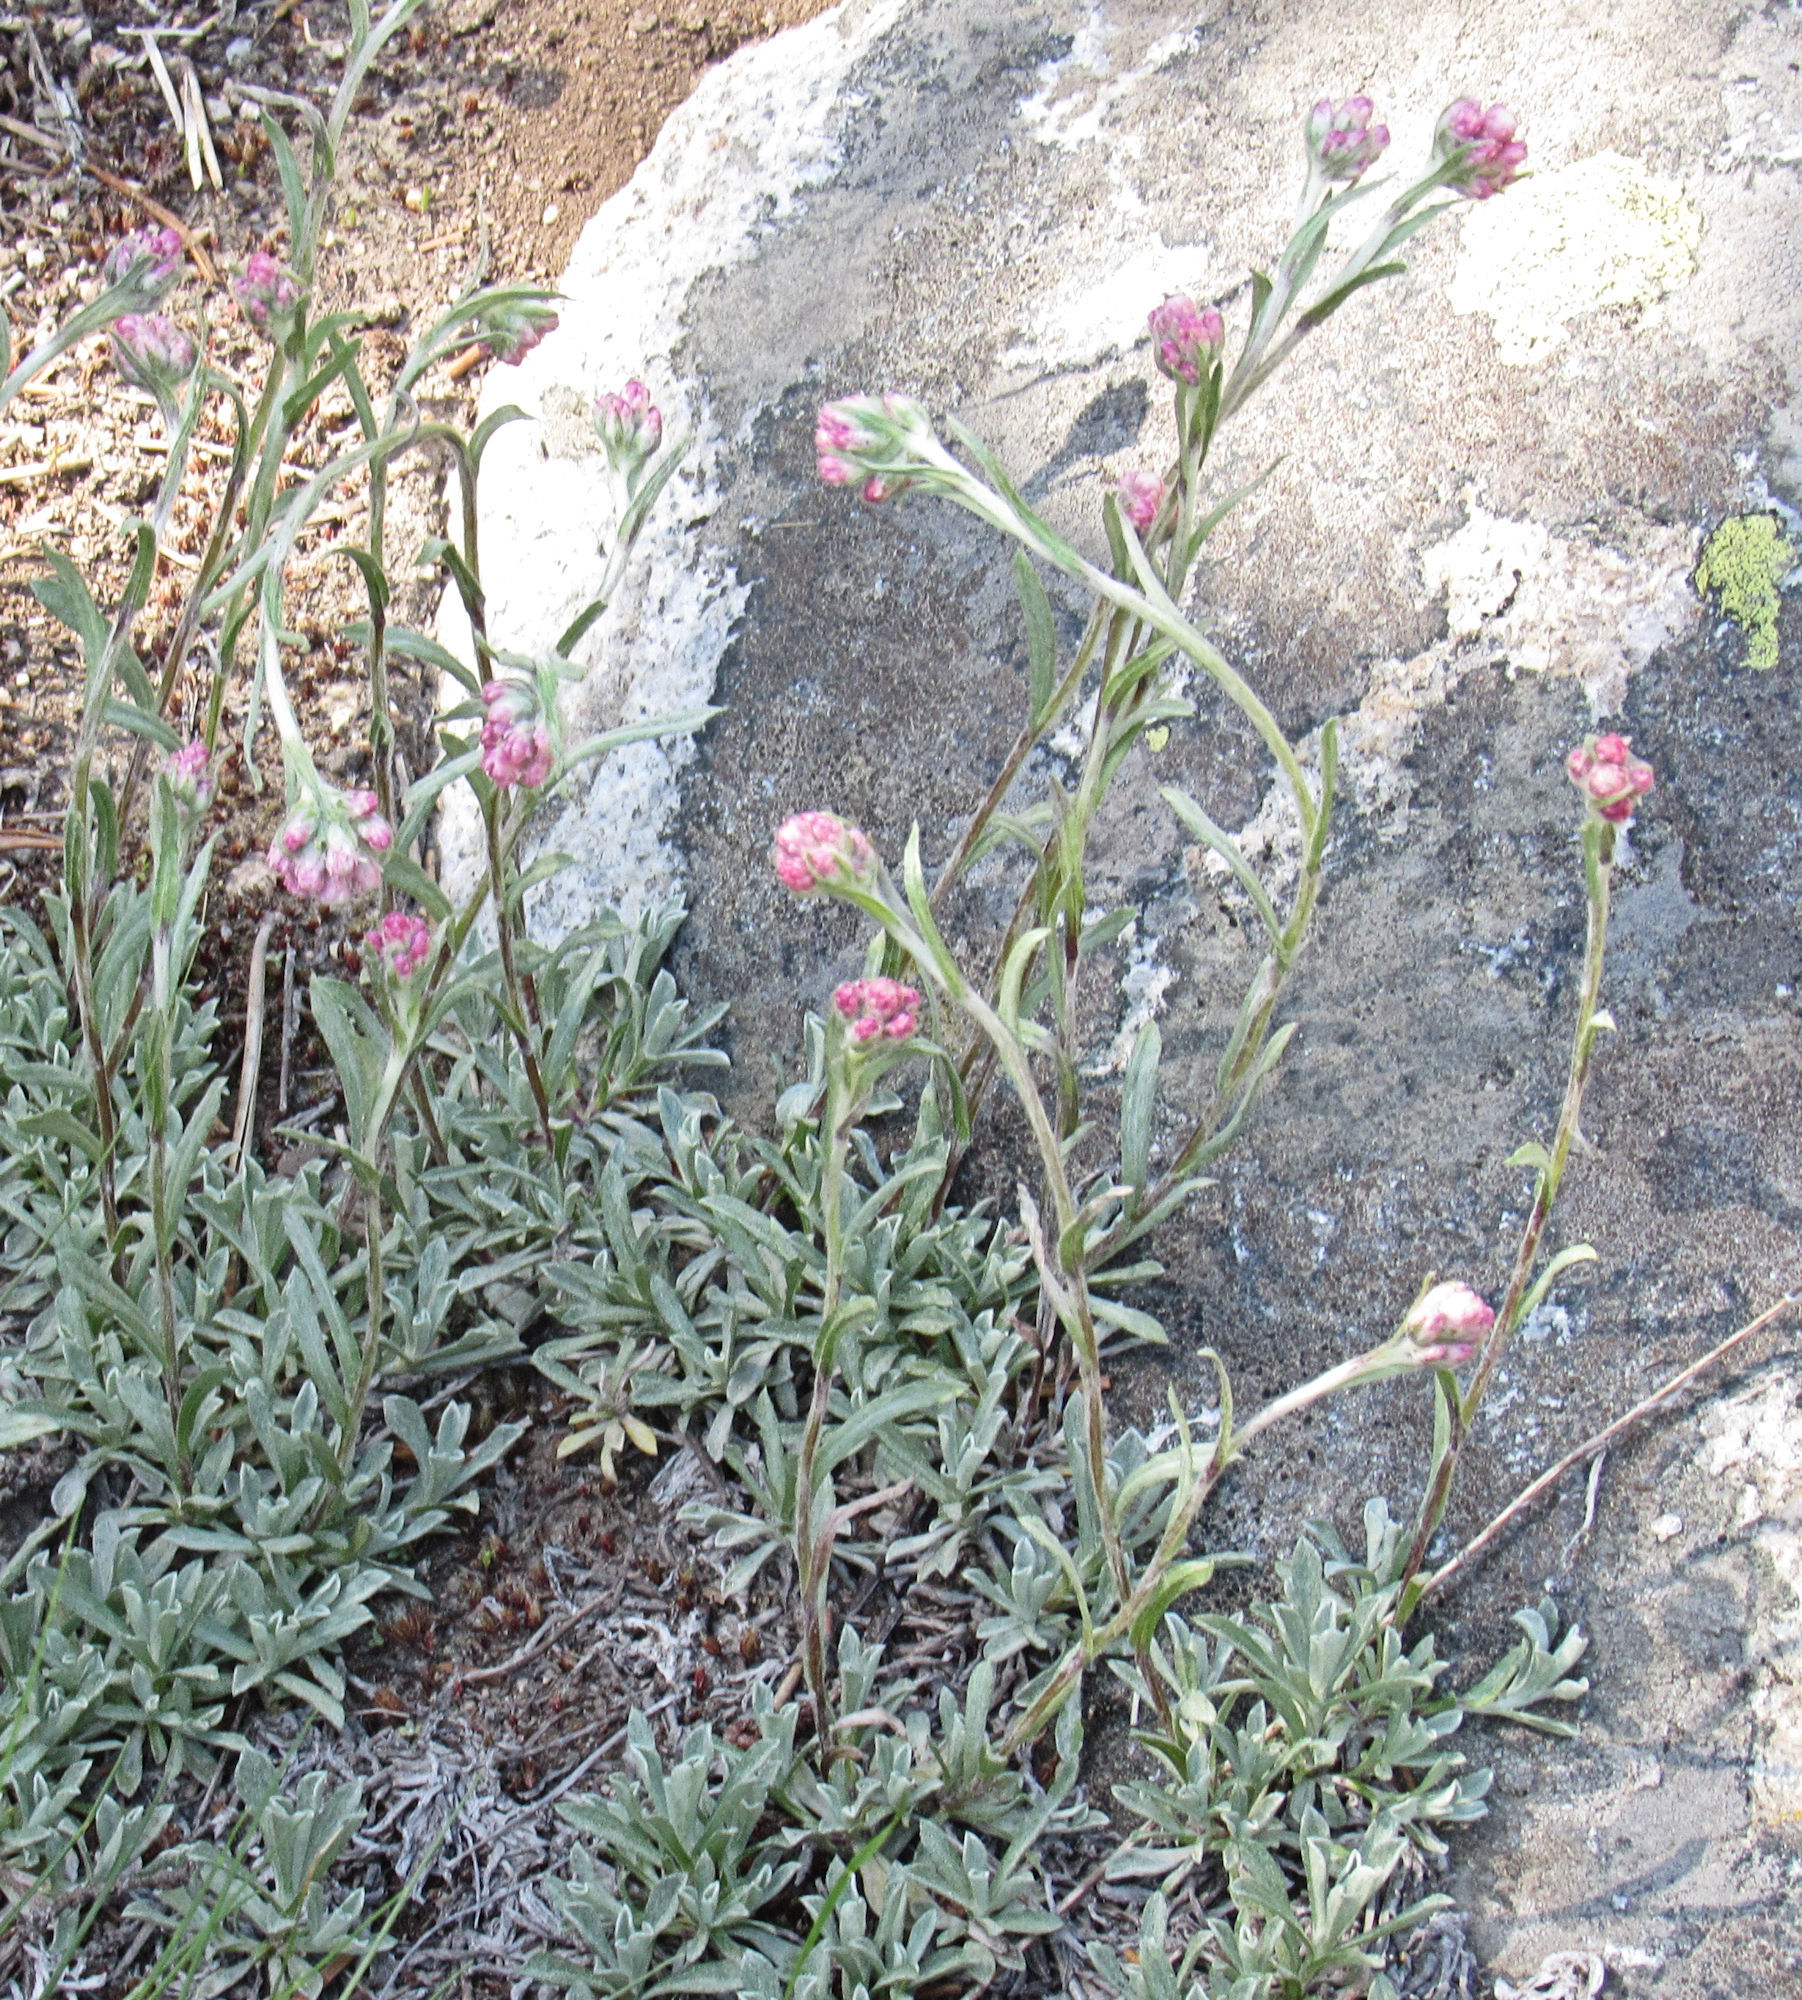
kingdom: Plantae
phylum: Tracheophyta
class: Magnoliopsida
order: Asterales
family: Asteraceae
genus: Antennaria
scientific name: Antennaria rosea
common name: Rosy pussytoes
